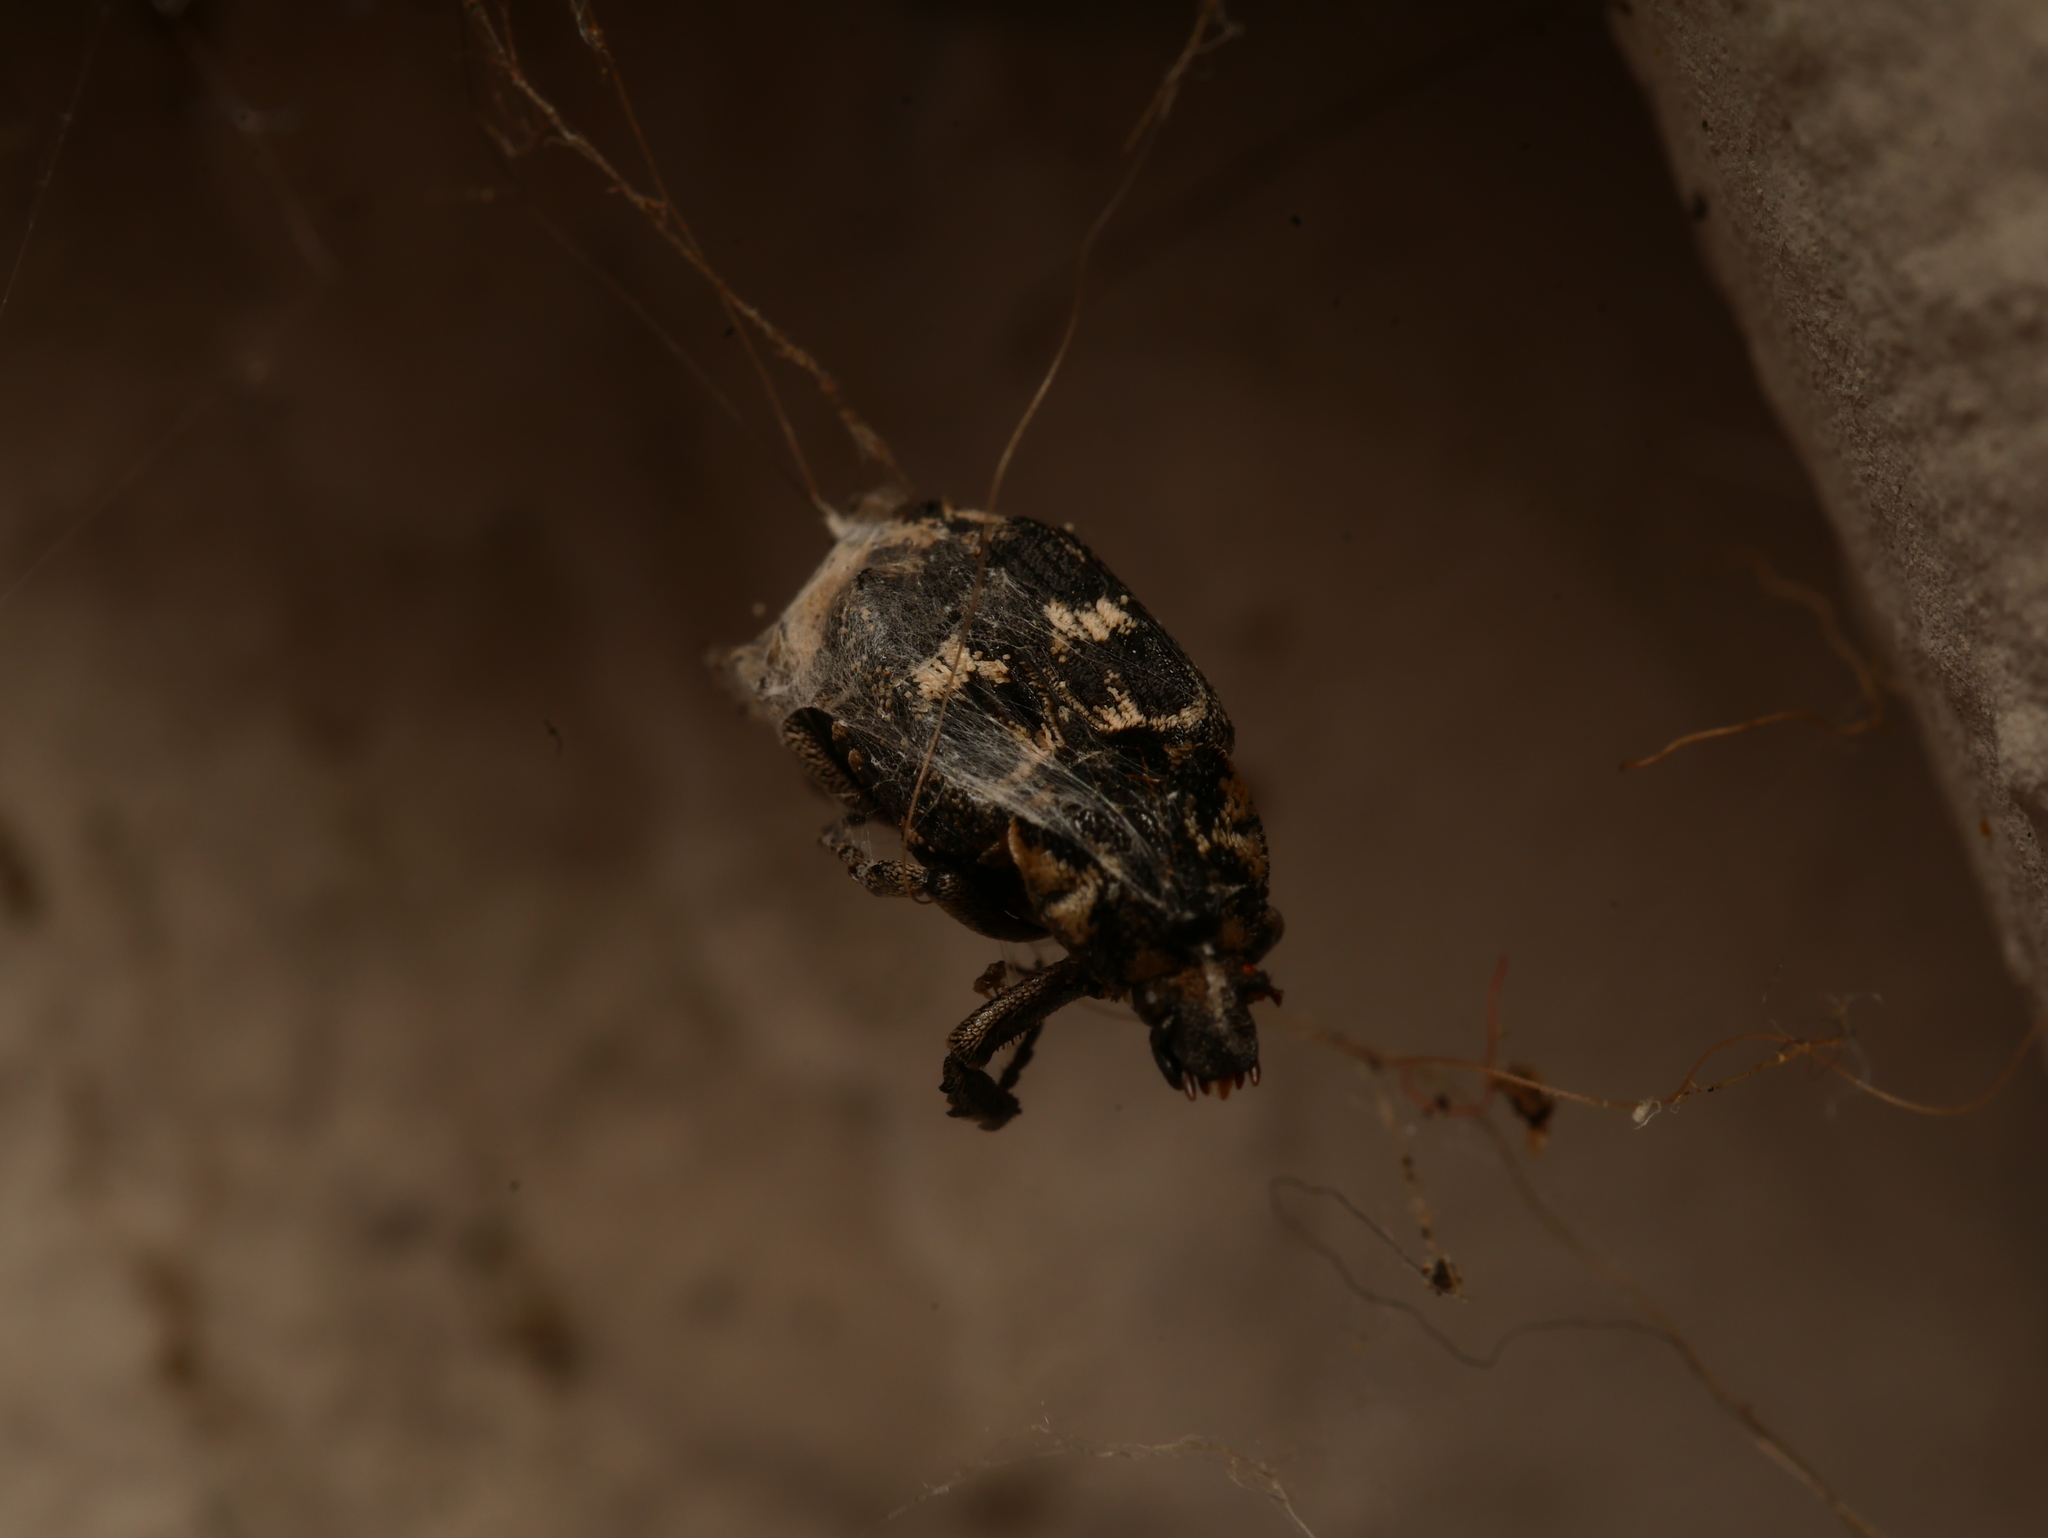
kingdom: Animalia
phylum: Arthropoda
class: Insecta
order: Coleoptera
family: Scarabaeidae
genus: Valgus
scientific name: Valgus hemipterus
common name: Bug flower chafer
